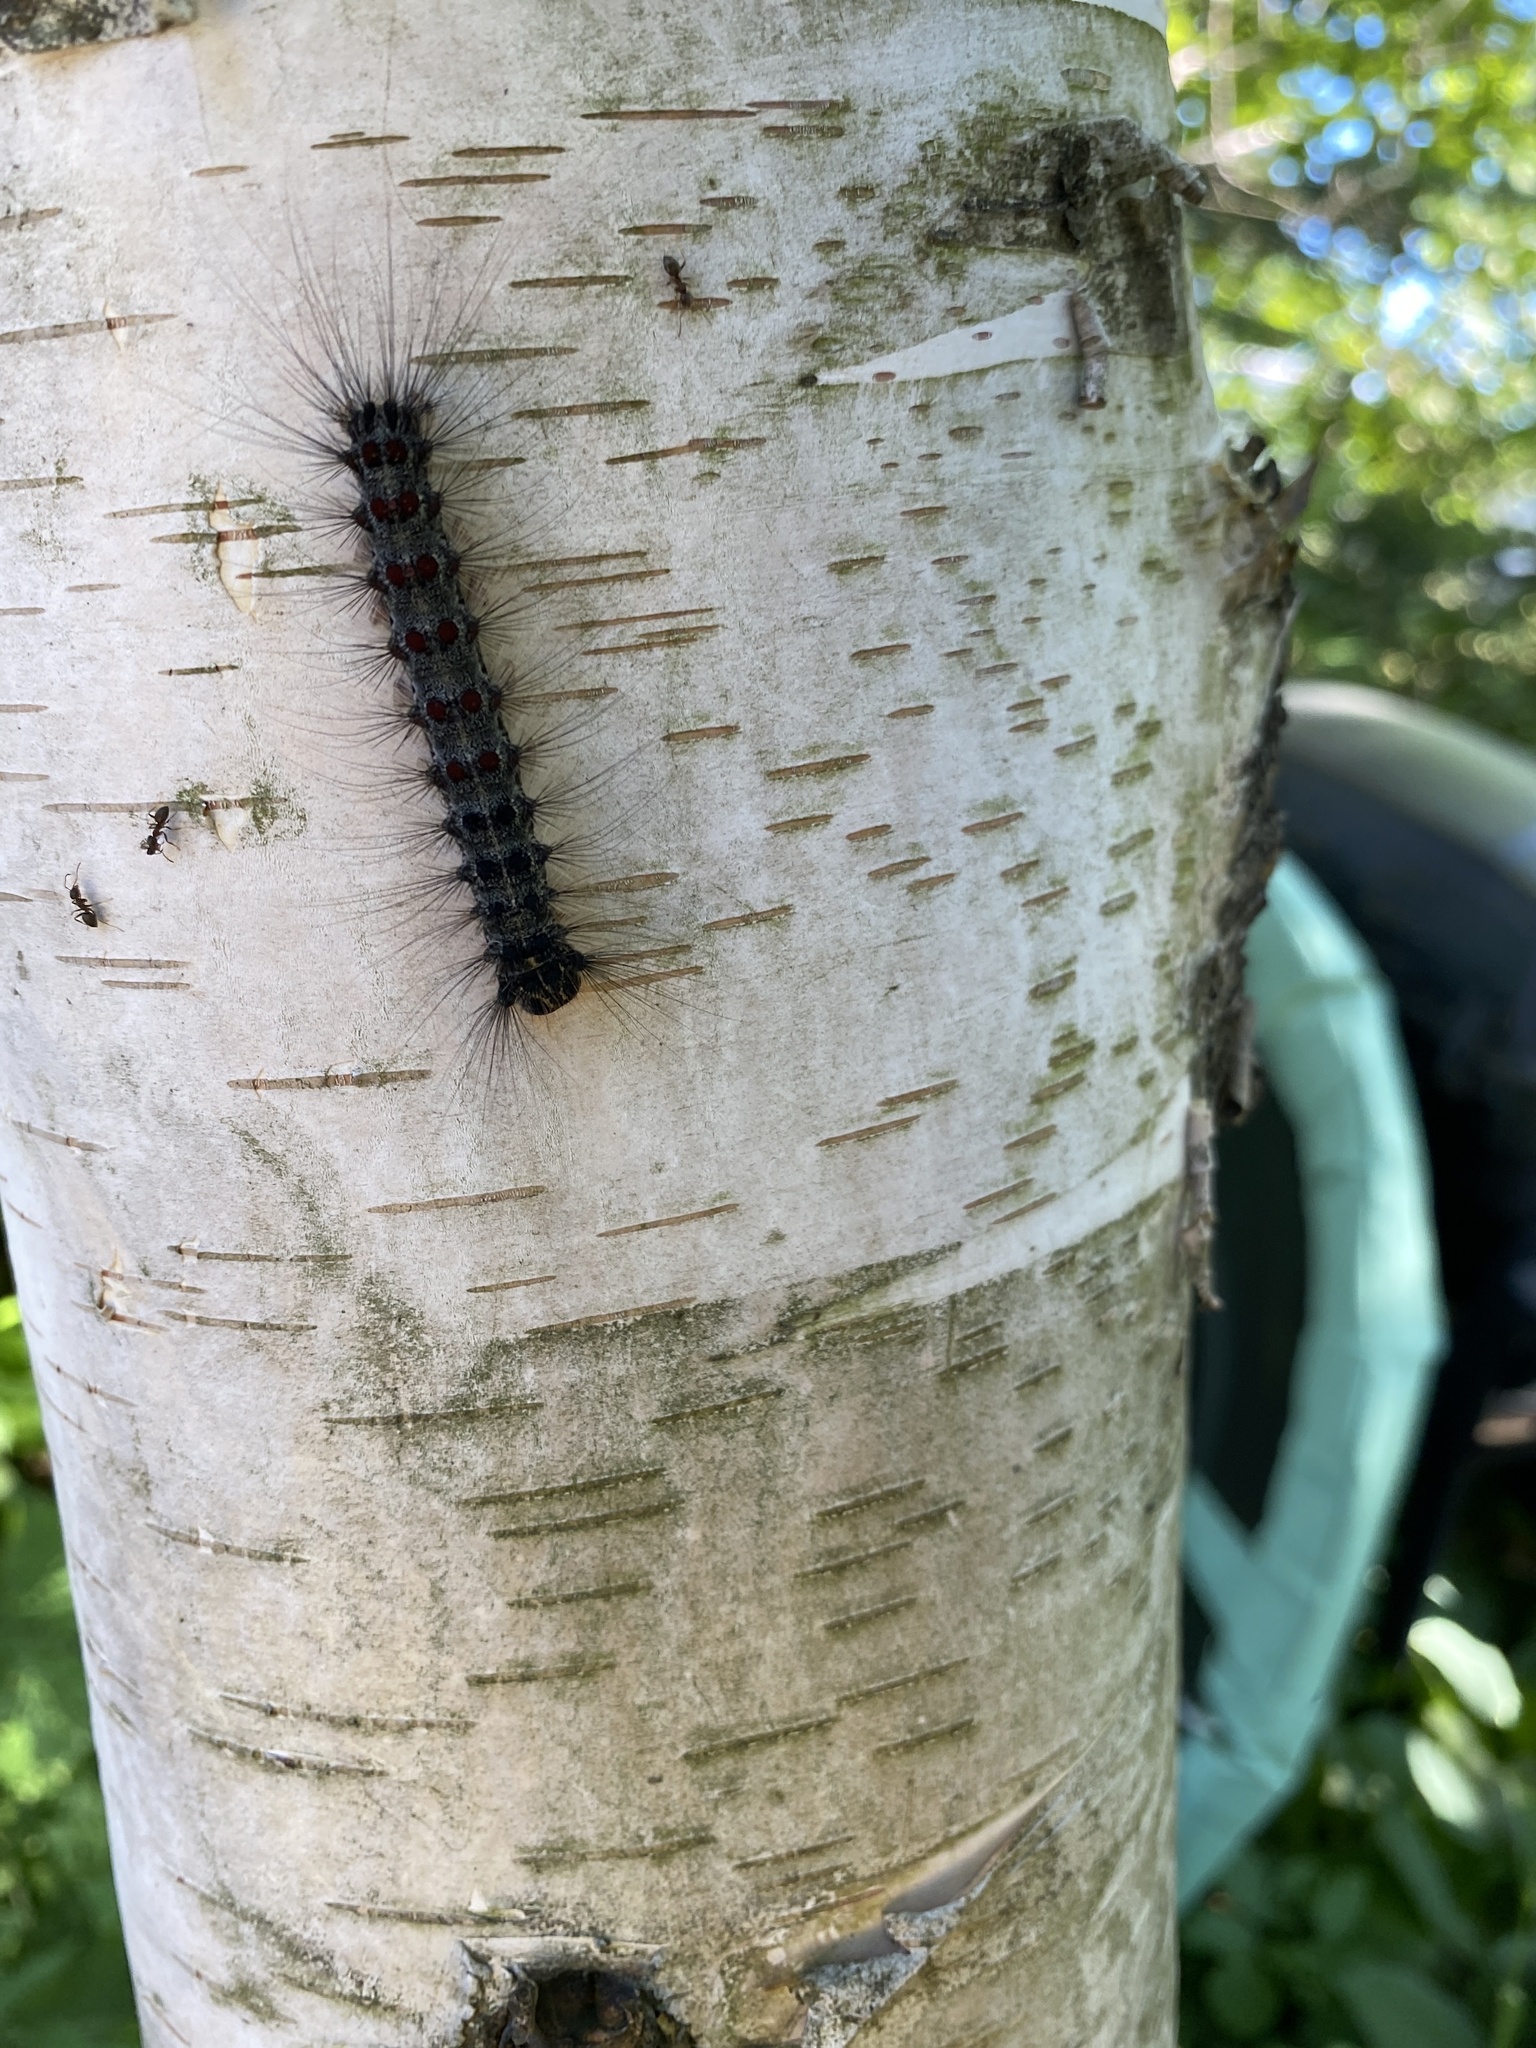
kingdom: Animalia
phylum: Arthropoda
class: Insecta
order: Lepidoptera
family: Erebidae
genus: Lymantria
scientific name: Lymantria dispar
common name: Gypsy moth
